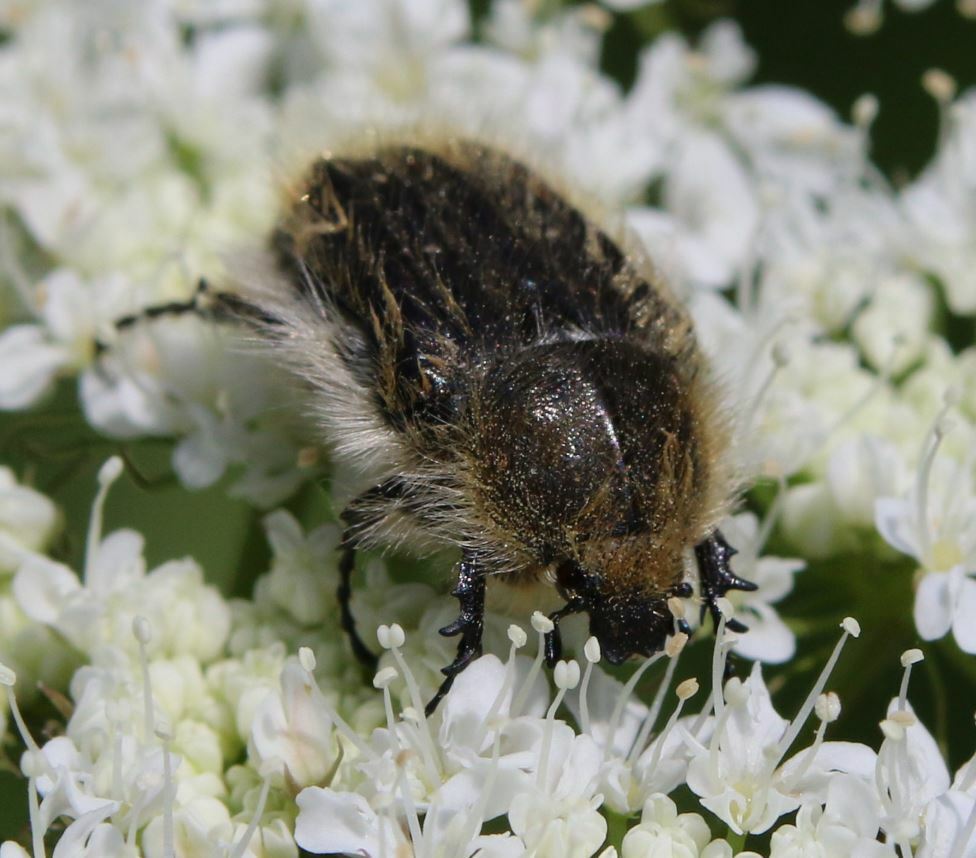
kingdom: Animalia
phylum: Arthropoda
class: Insecta
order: Coleoptera
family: Scarabaeidae
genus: Tropinota
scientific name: Tropinota squalida
